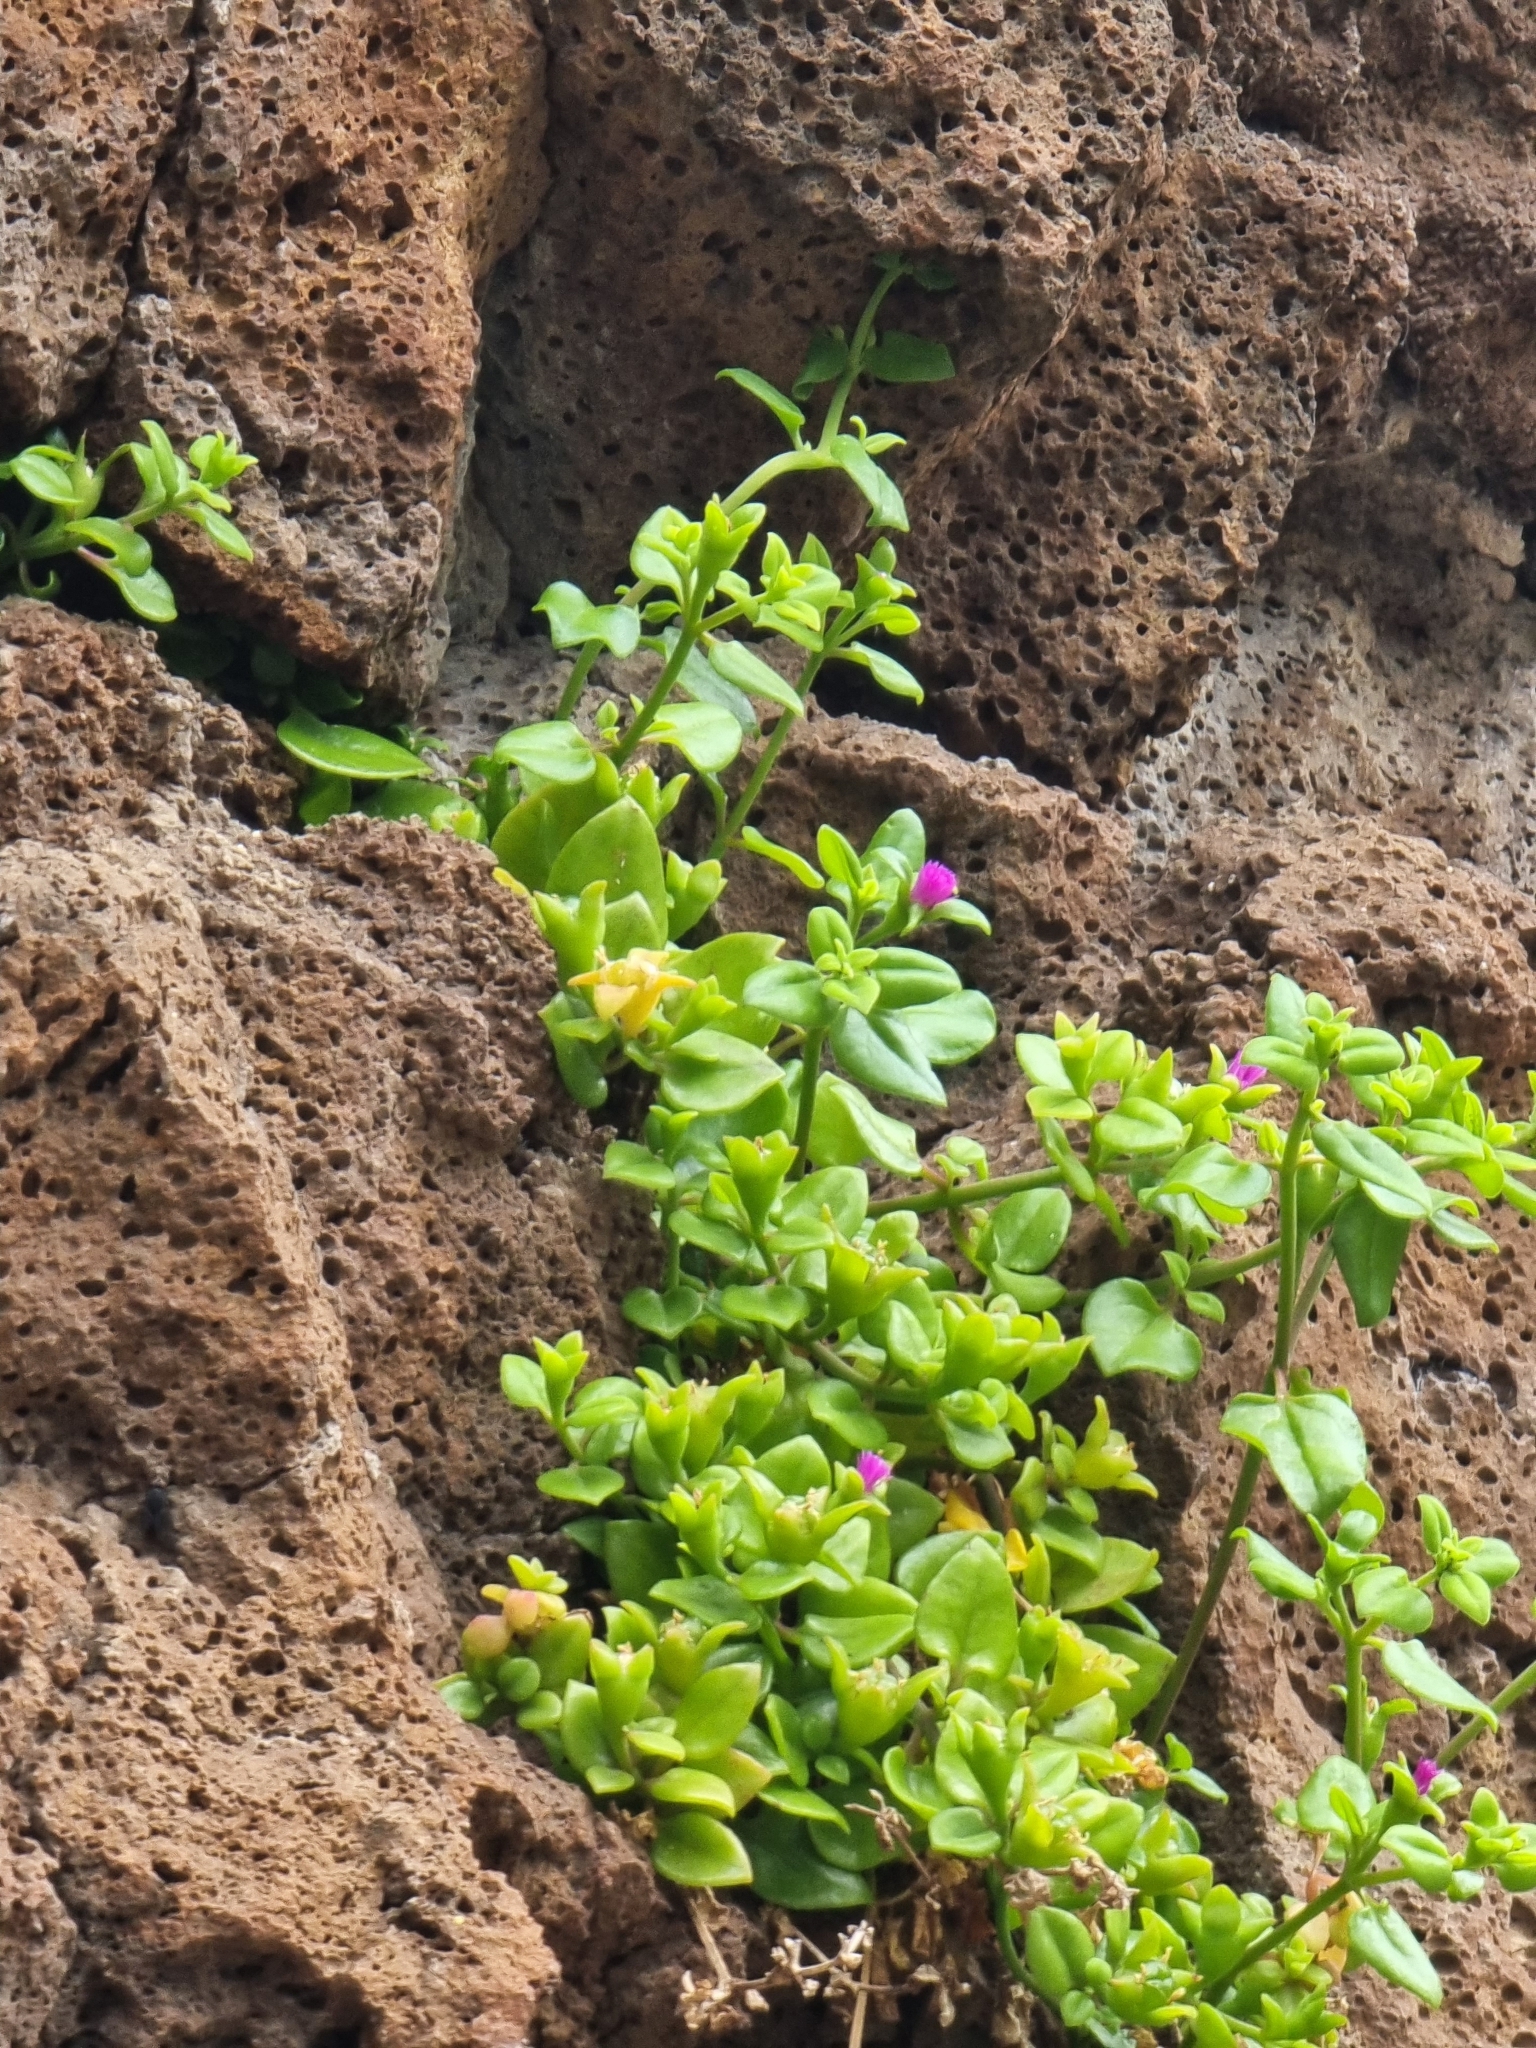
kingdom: Plantae
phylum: Tracheophyta
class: Magnoliopsida
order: Caryophyllales
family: Aizoaceae
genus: Mesembryanthemum
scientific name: Mesembryanthemum cordifolium
